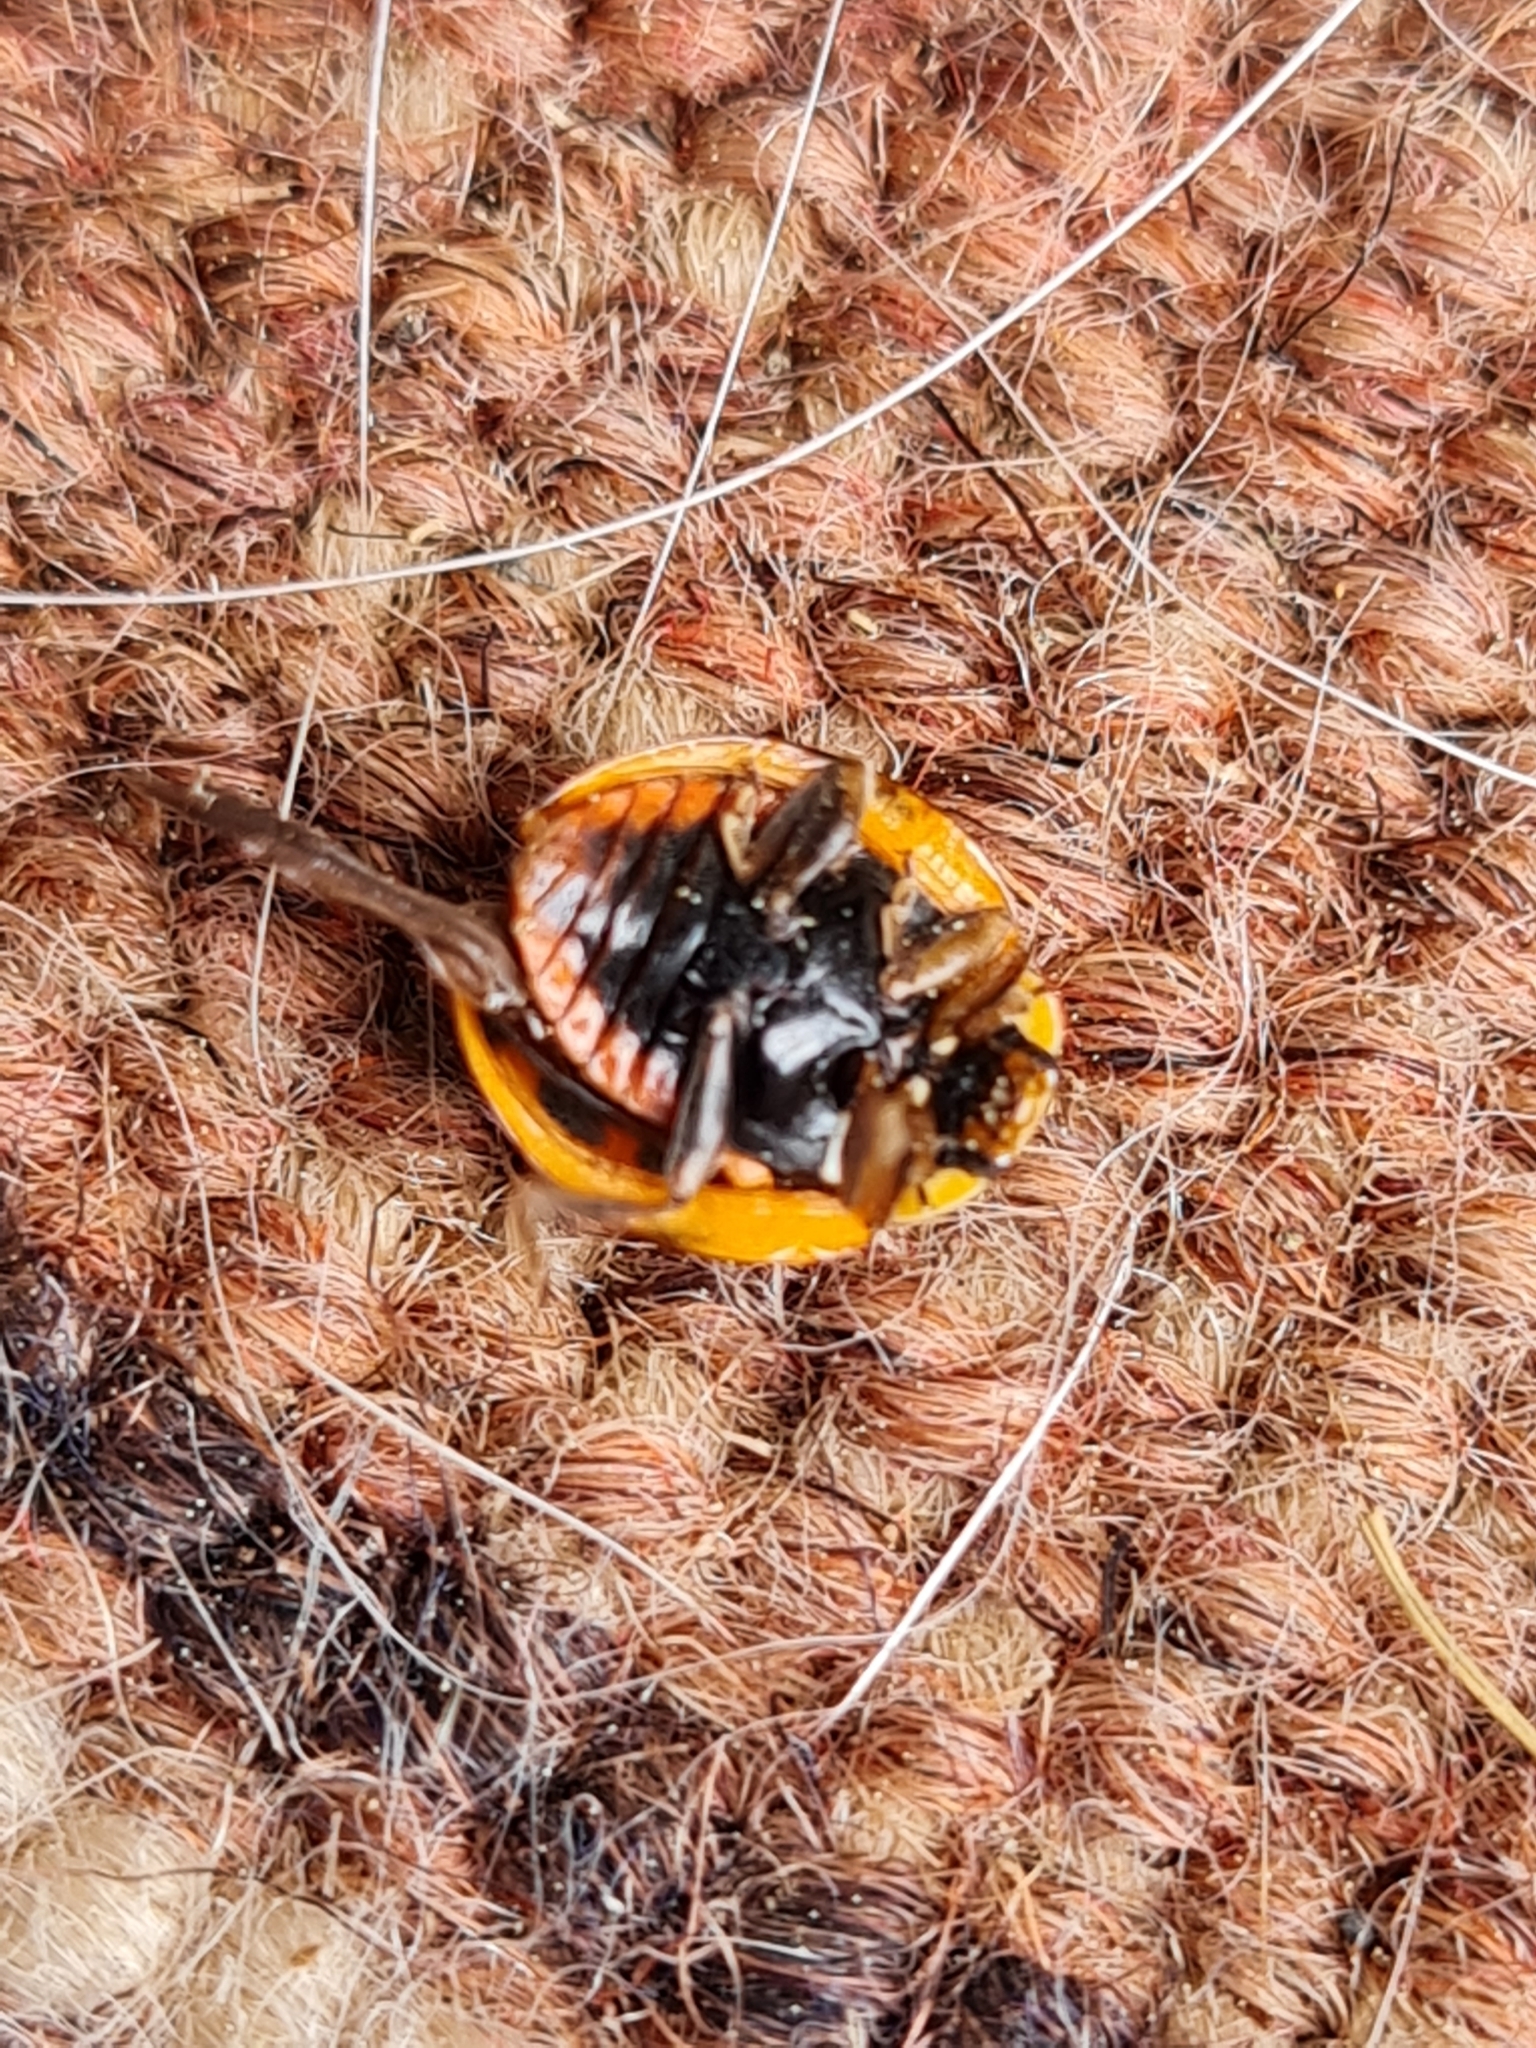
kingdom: Animalia
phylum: Arthropoda
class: Insecta
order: Coleoptera
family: Coccinellidae
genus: Harmonia
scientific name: Harmonia axyridis
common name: Harlequin ladybird
